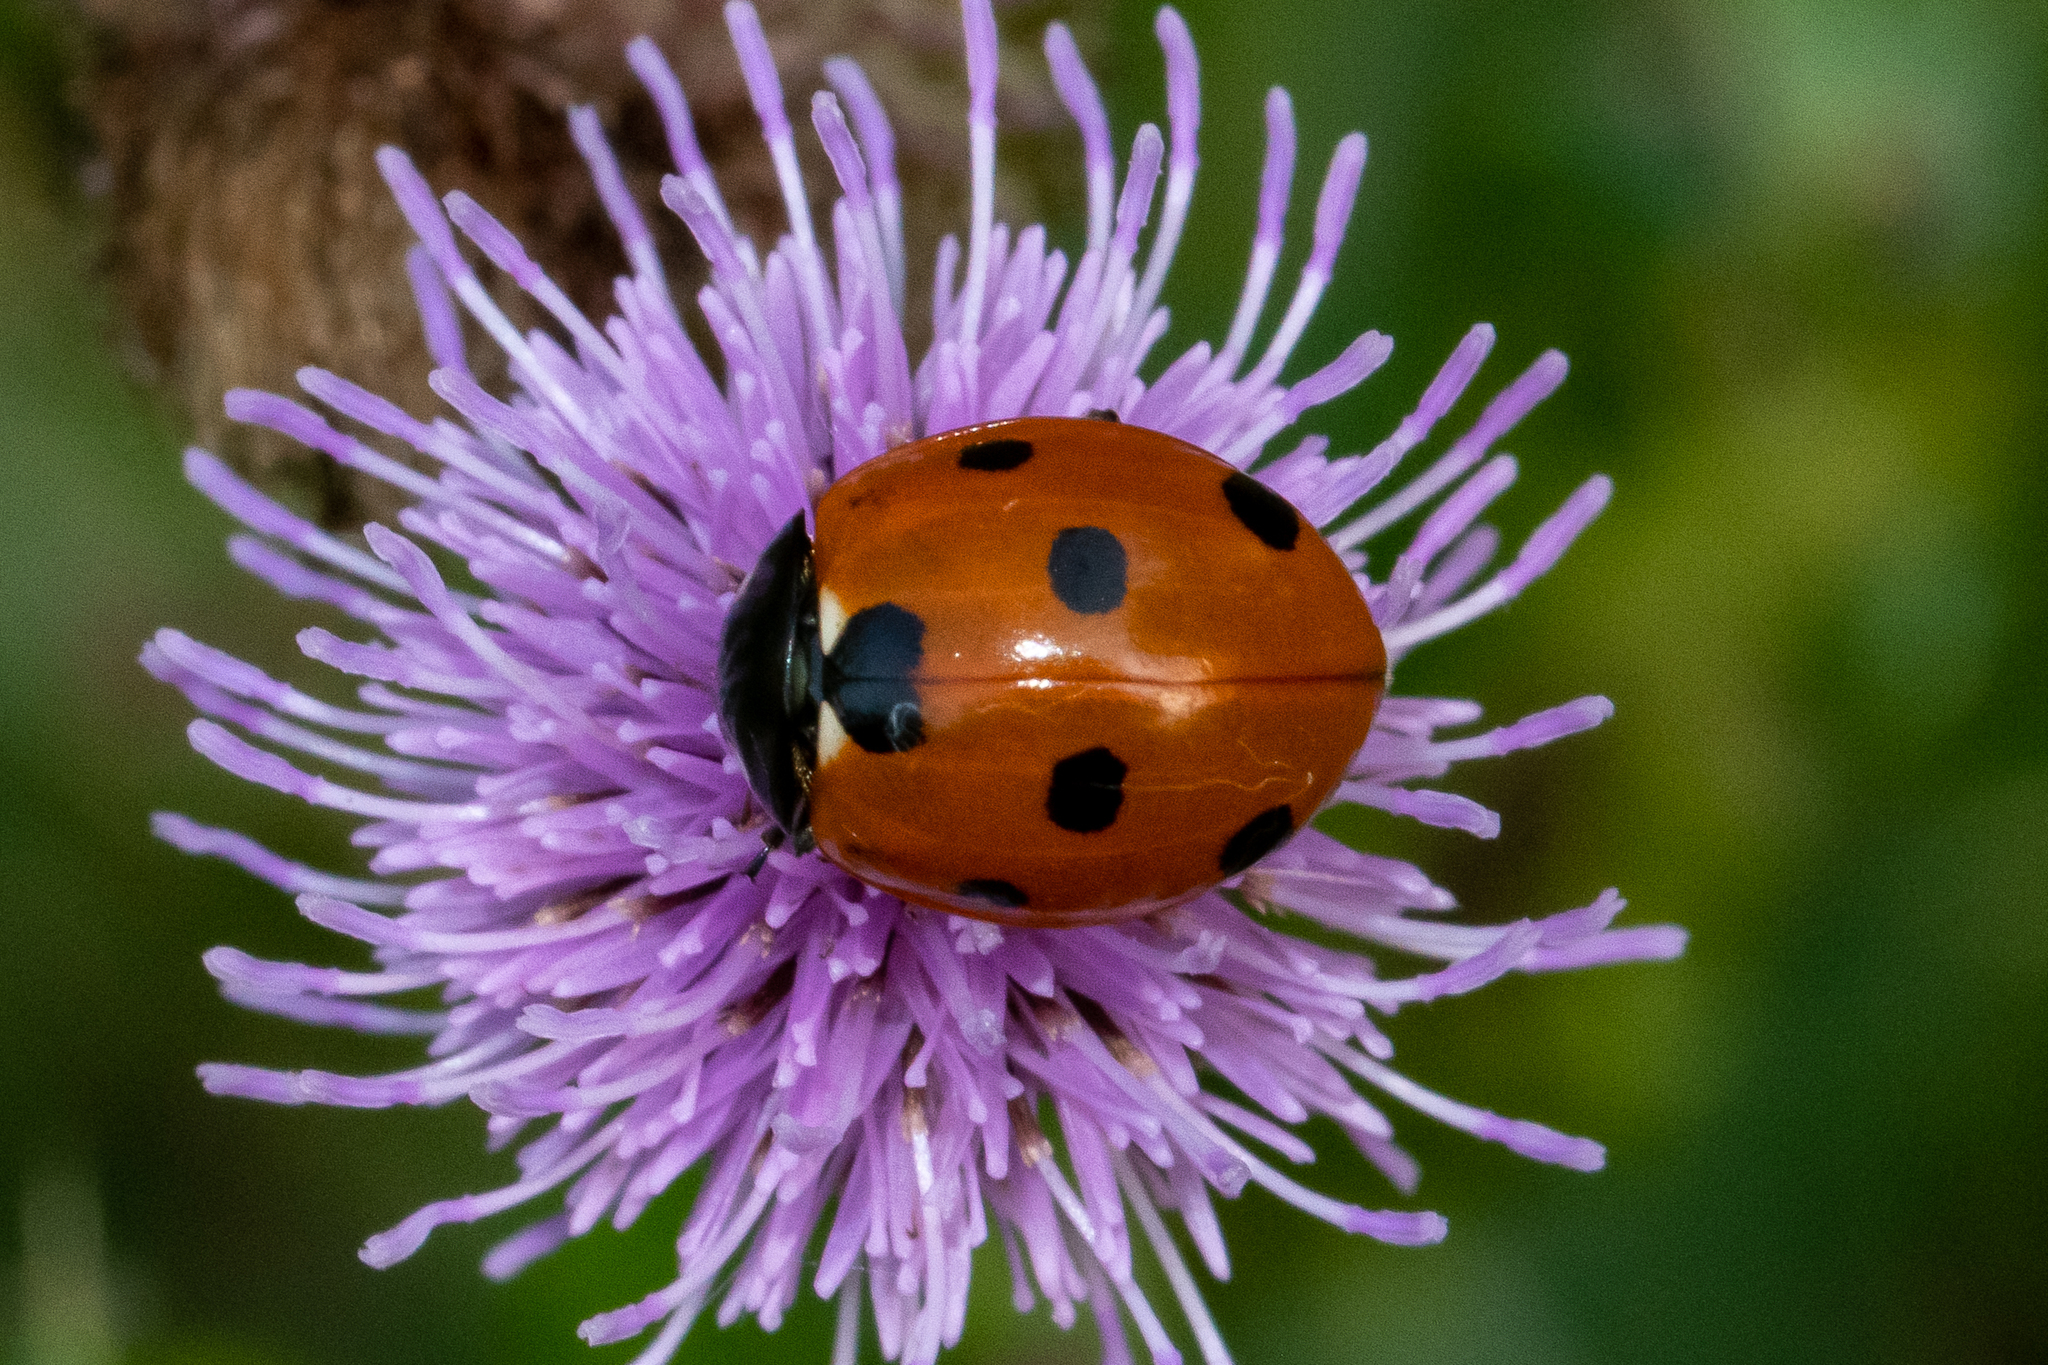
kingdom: Animalia
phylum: Arthropoda
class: Insecta
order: Coleoptera
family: Coccinellidae
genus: Coccinella
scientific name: Coccinella septempunctata
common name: Sevenspotted lady beetle
